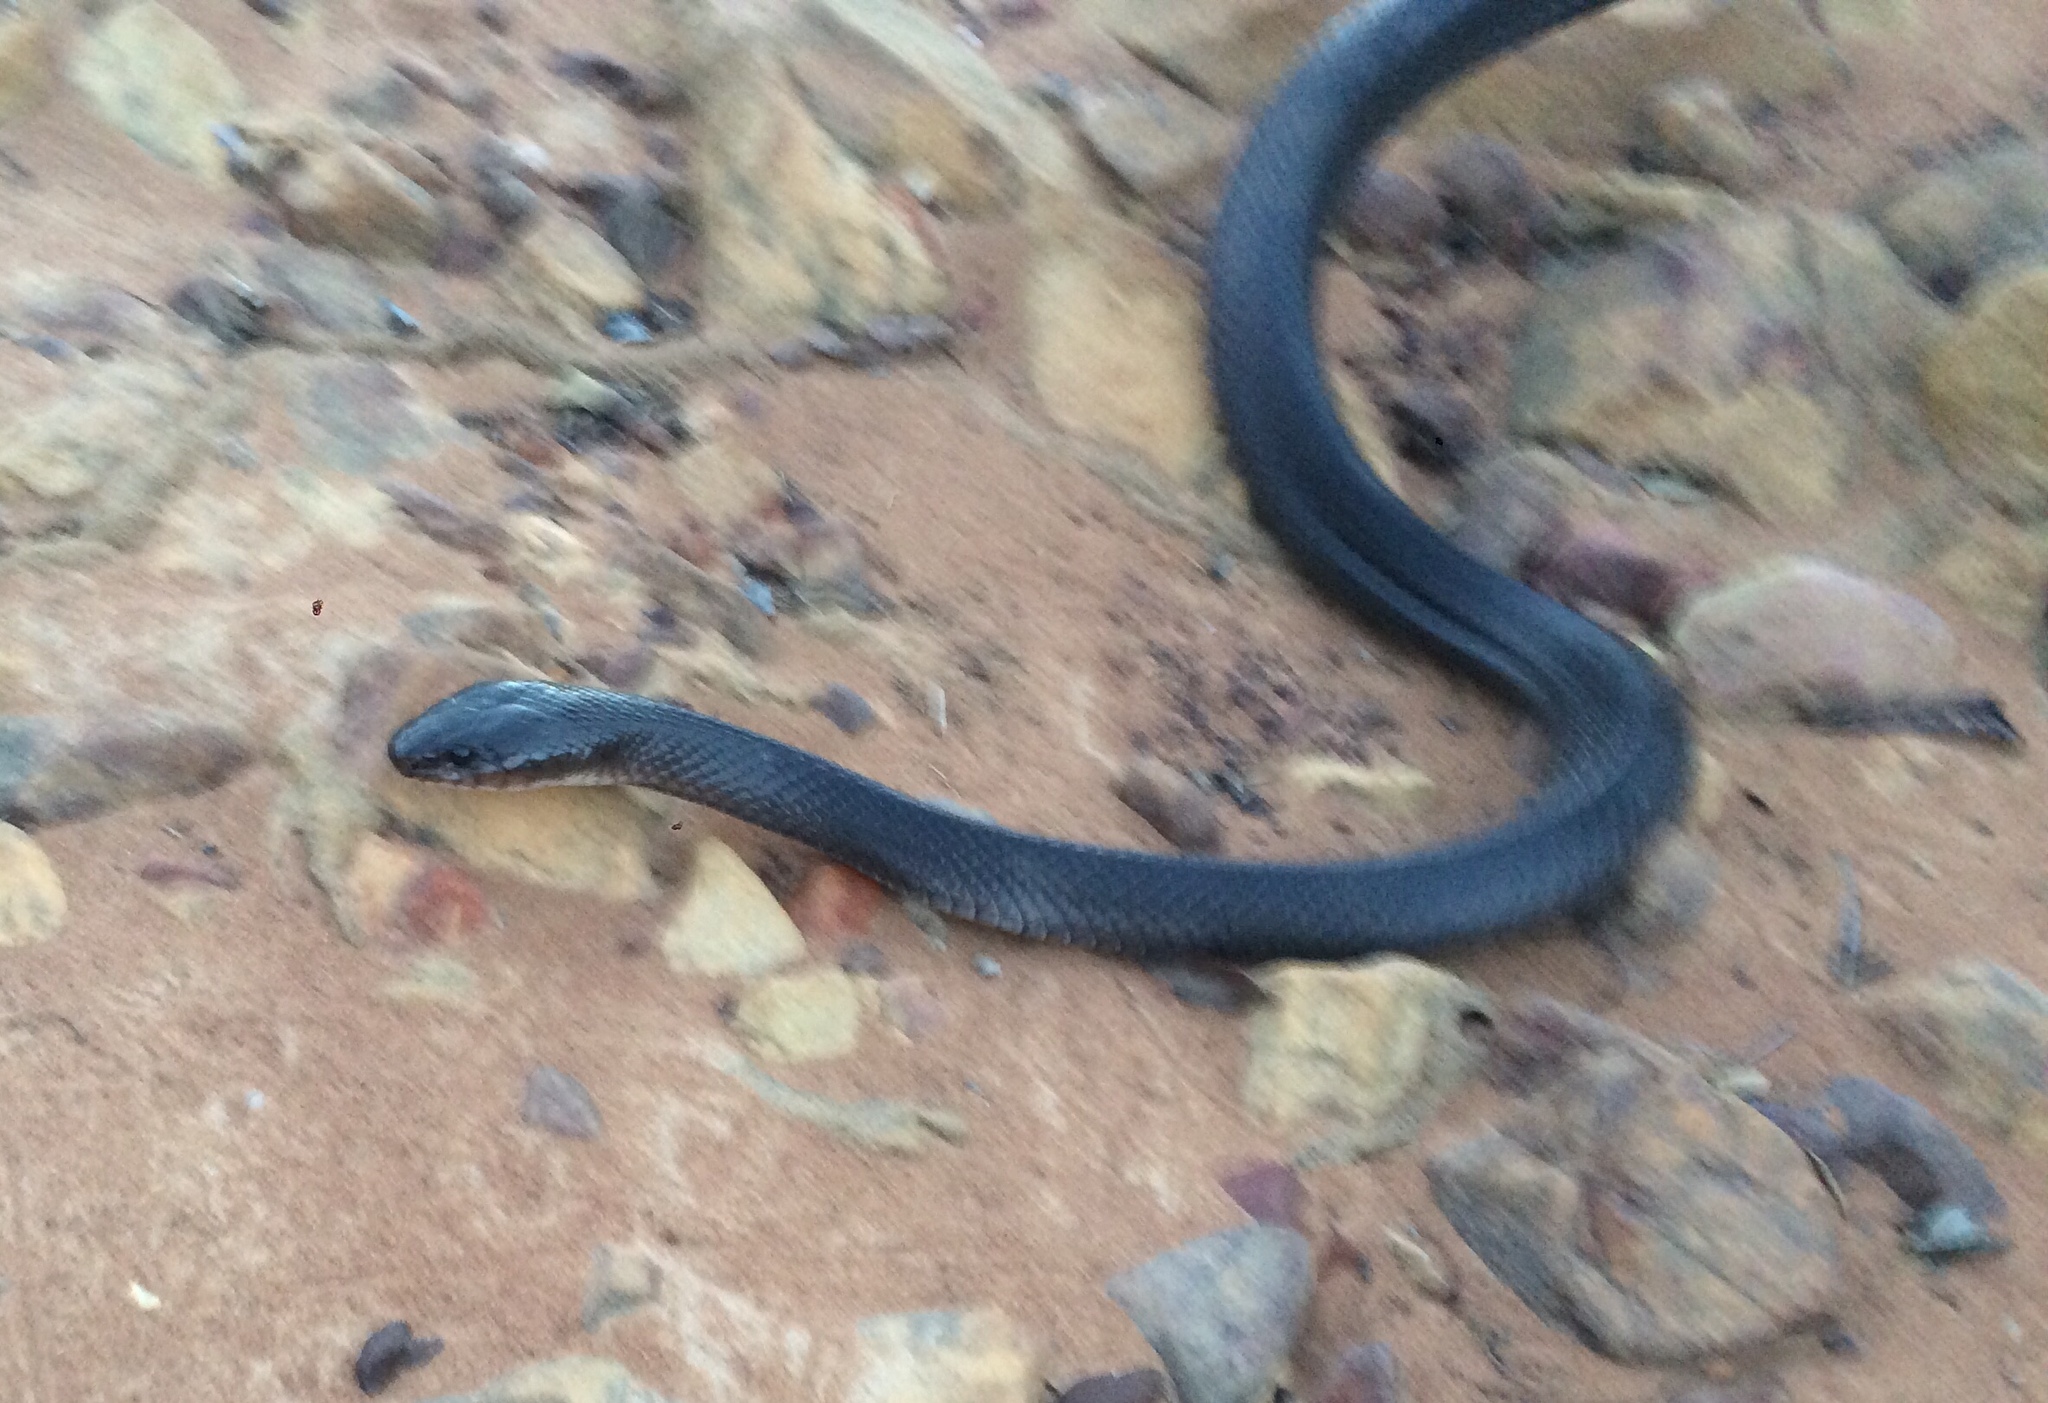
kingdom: Animalia
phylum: Chordata
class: Squamata
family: Colubridae
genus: Boiruna
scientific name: Boiruna sertaneja
